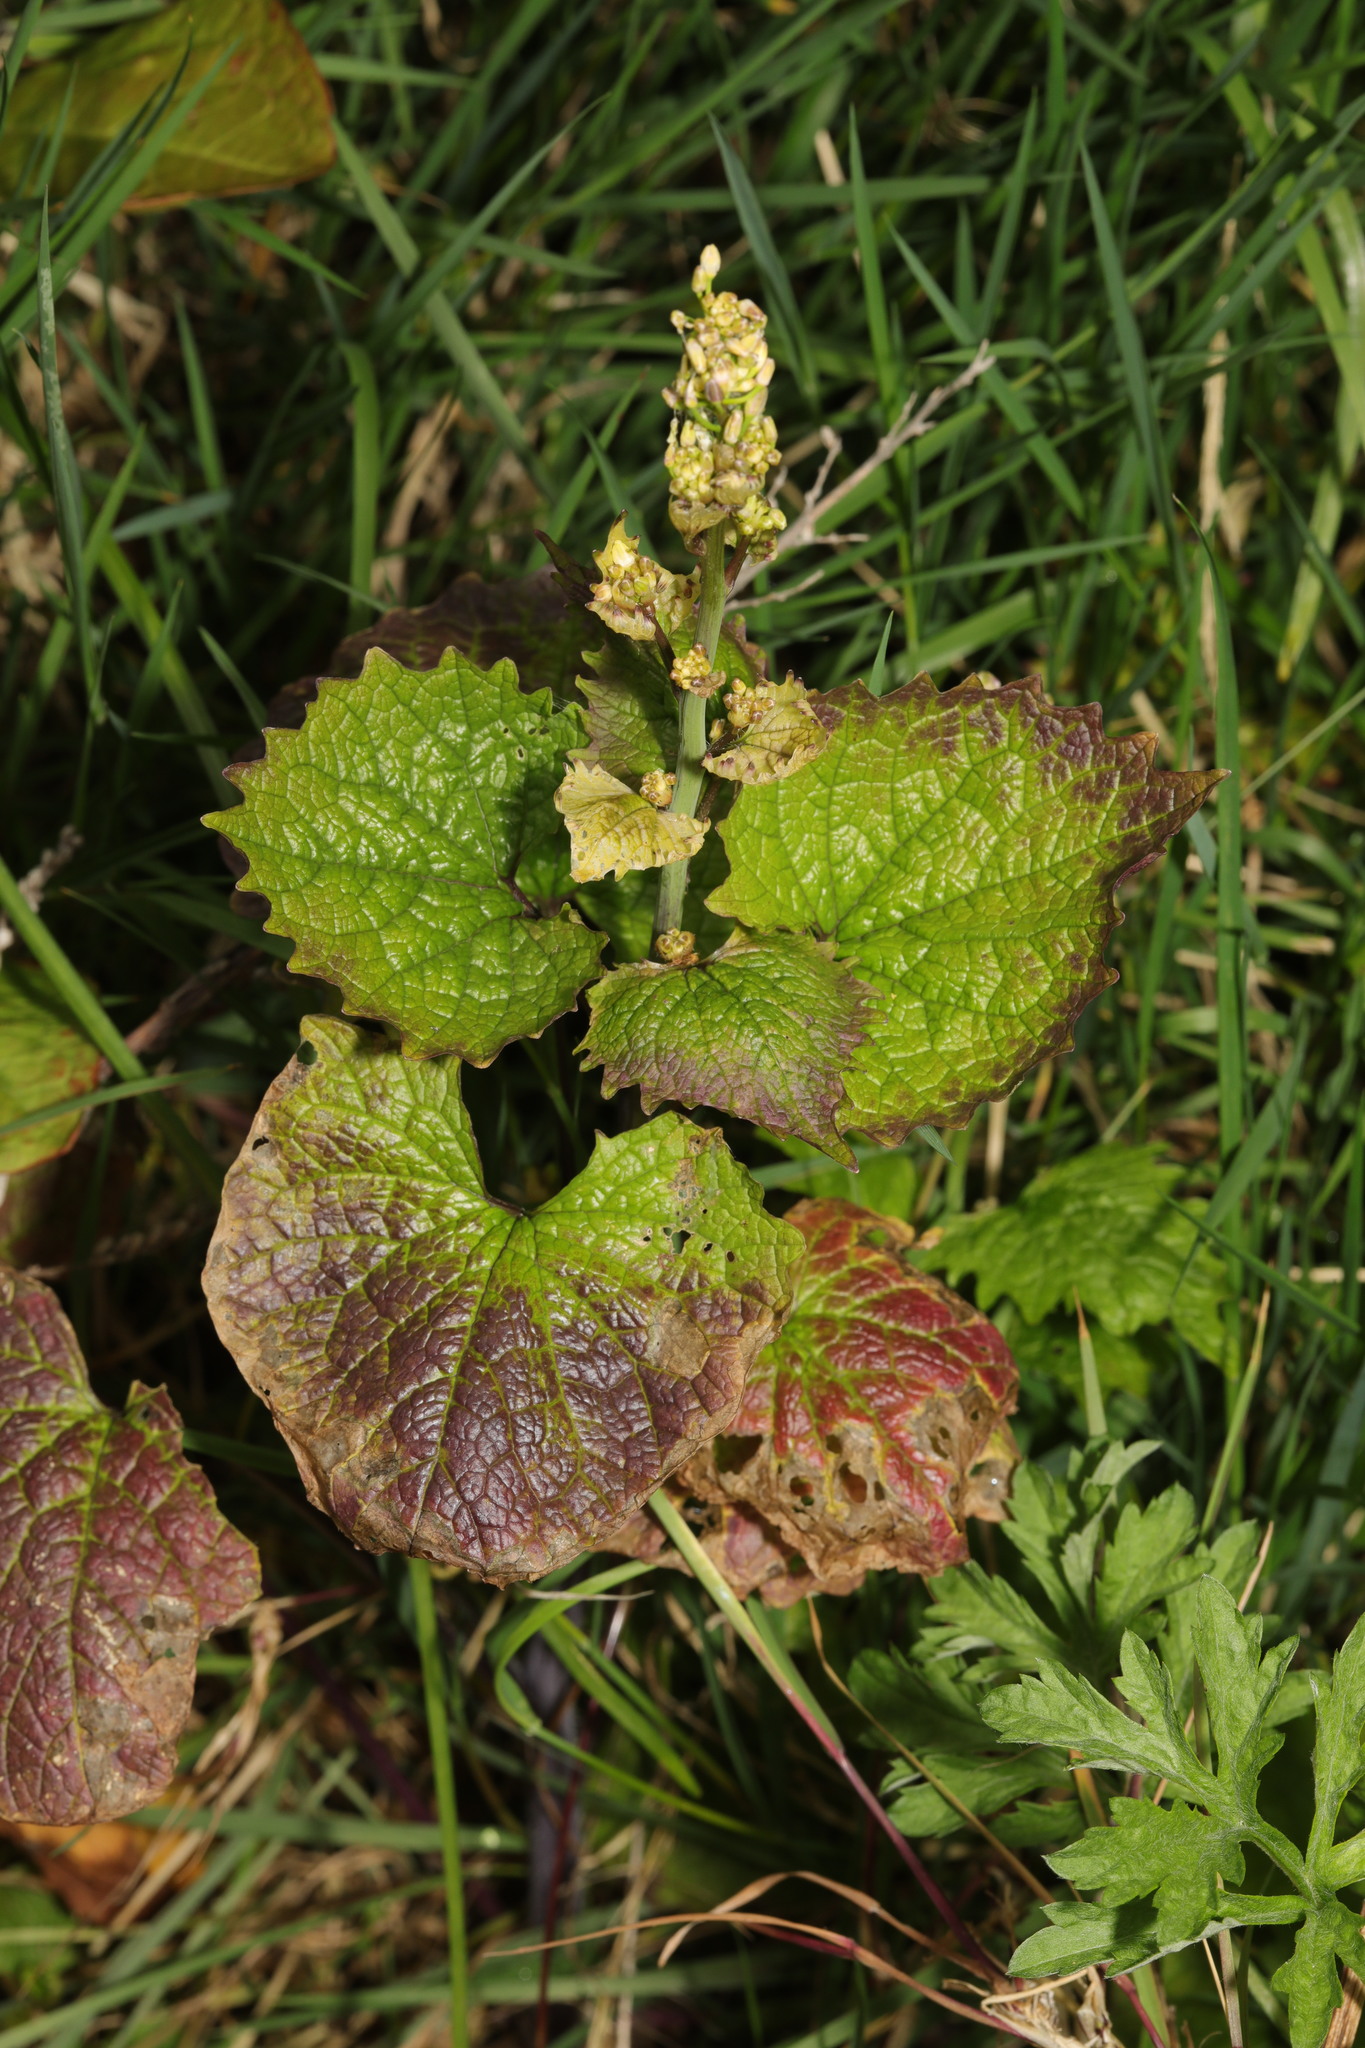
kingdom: Plantae
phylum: Tracheophyta
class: Magnoliopsida
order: Brassicales
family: Brassicaceae
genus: Alliaria
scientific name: Alliaria petiolata
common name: Garlic mustard
